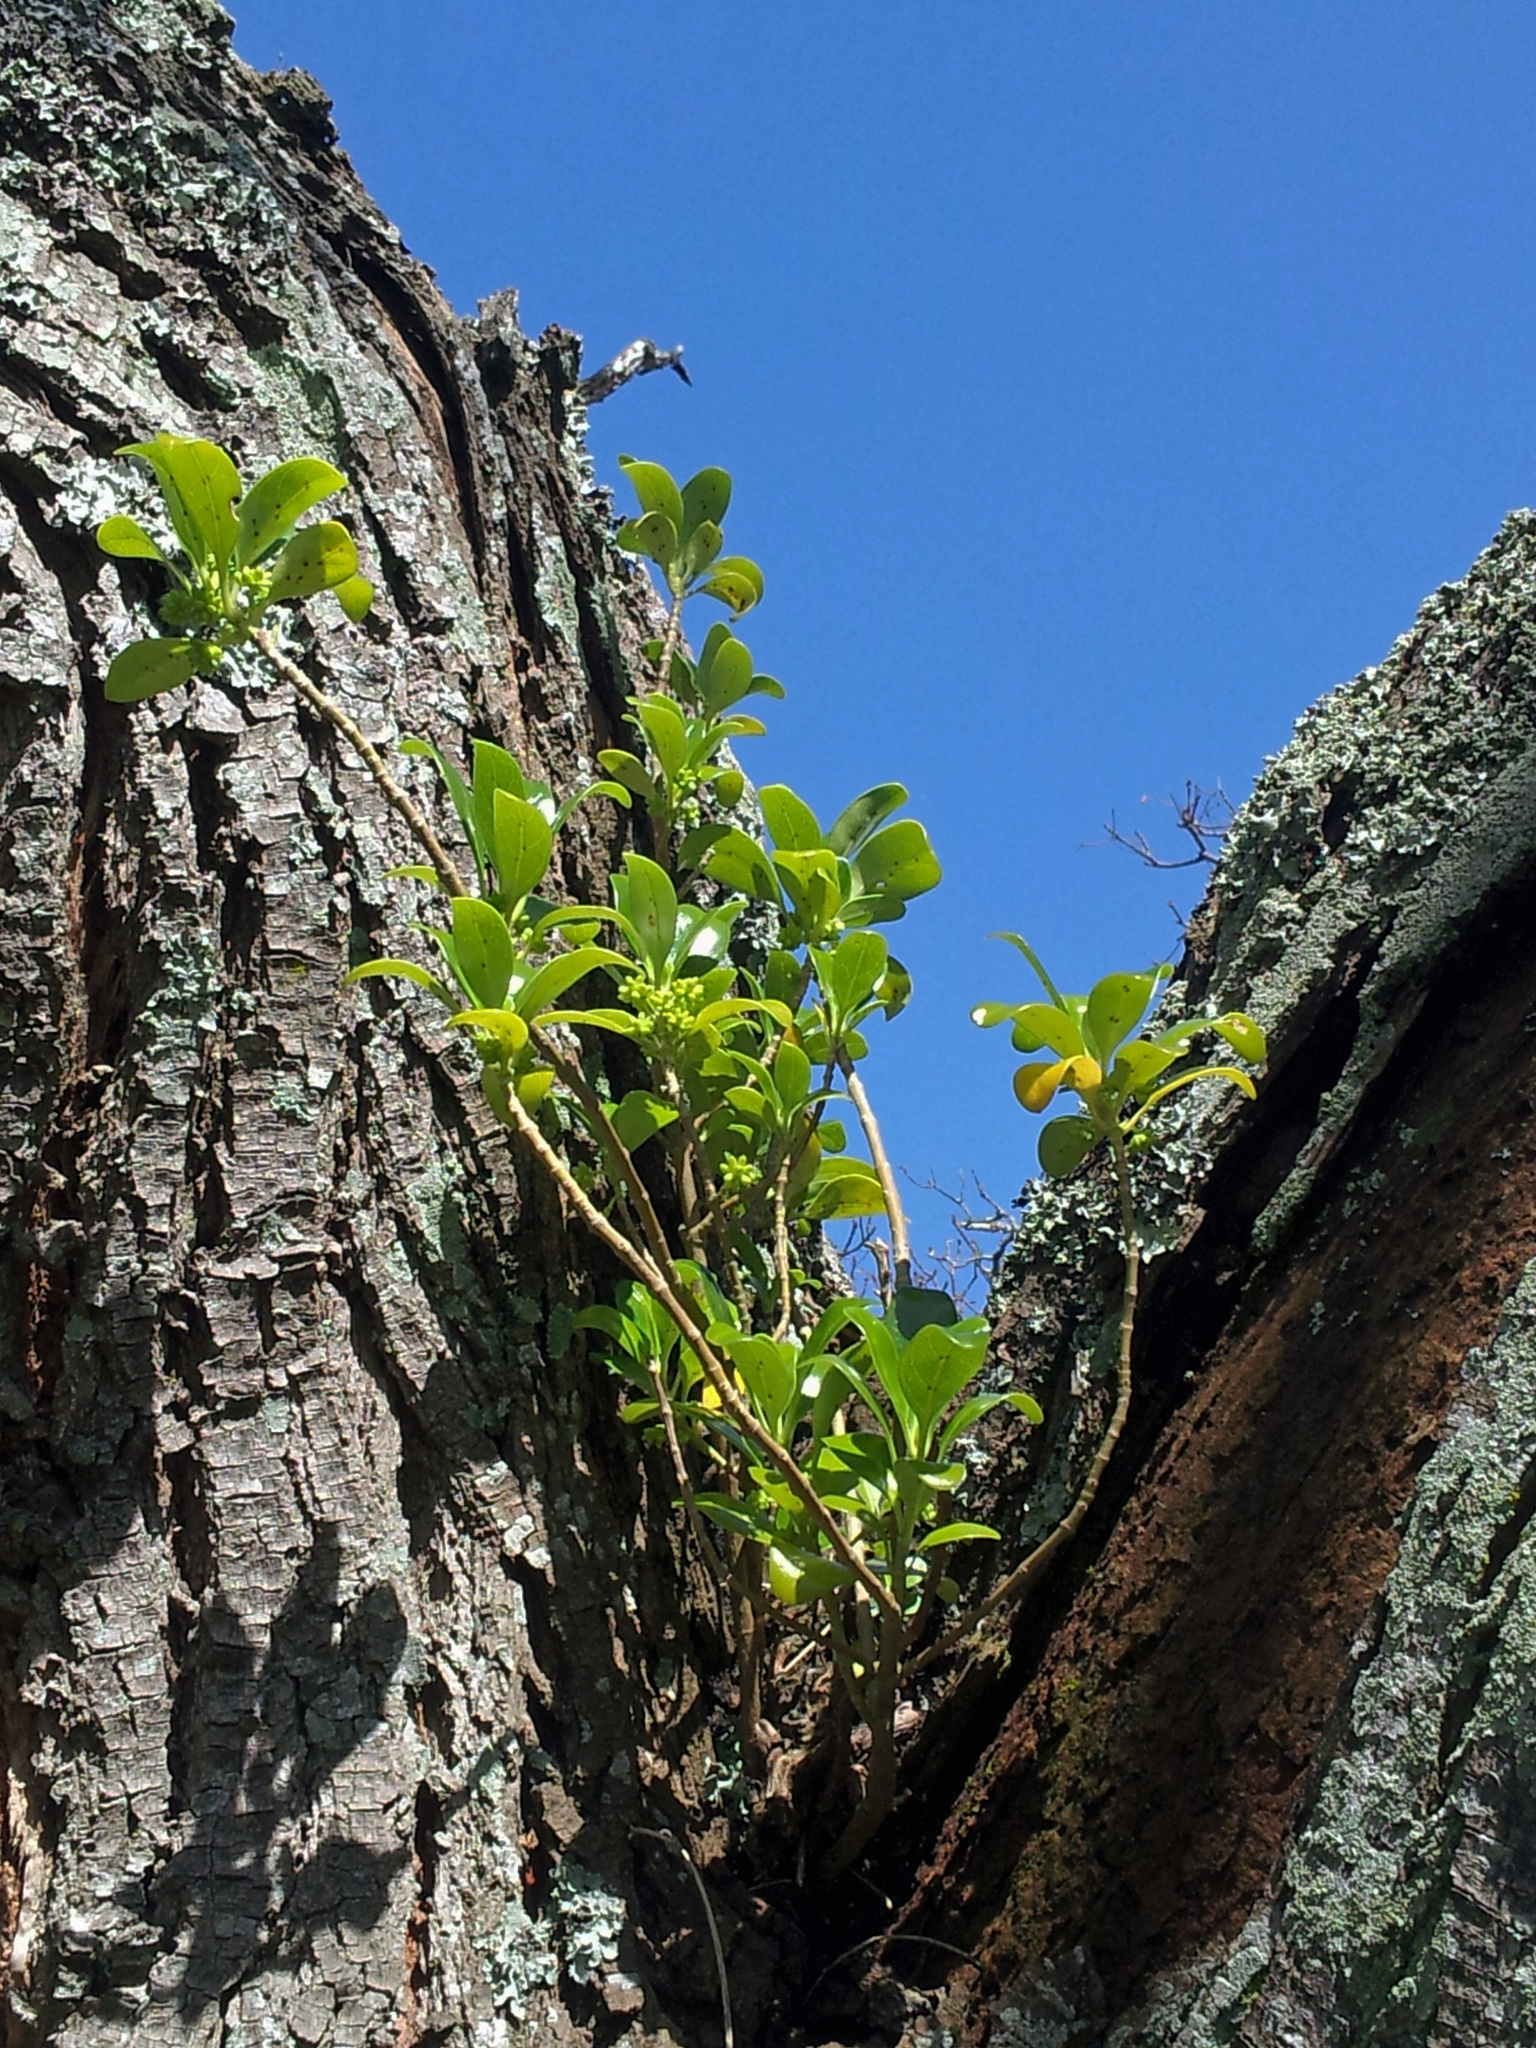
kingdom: Plantae
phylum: Tracheophyta
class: Magnoliopsida
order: Gentianales
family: Rubiaceae
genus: Coprosma
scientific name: Coprosma repens
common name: Tree bedstraw
